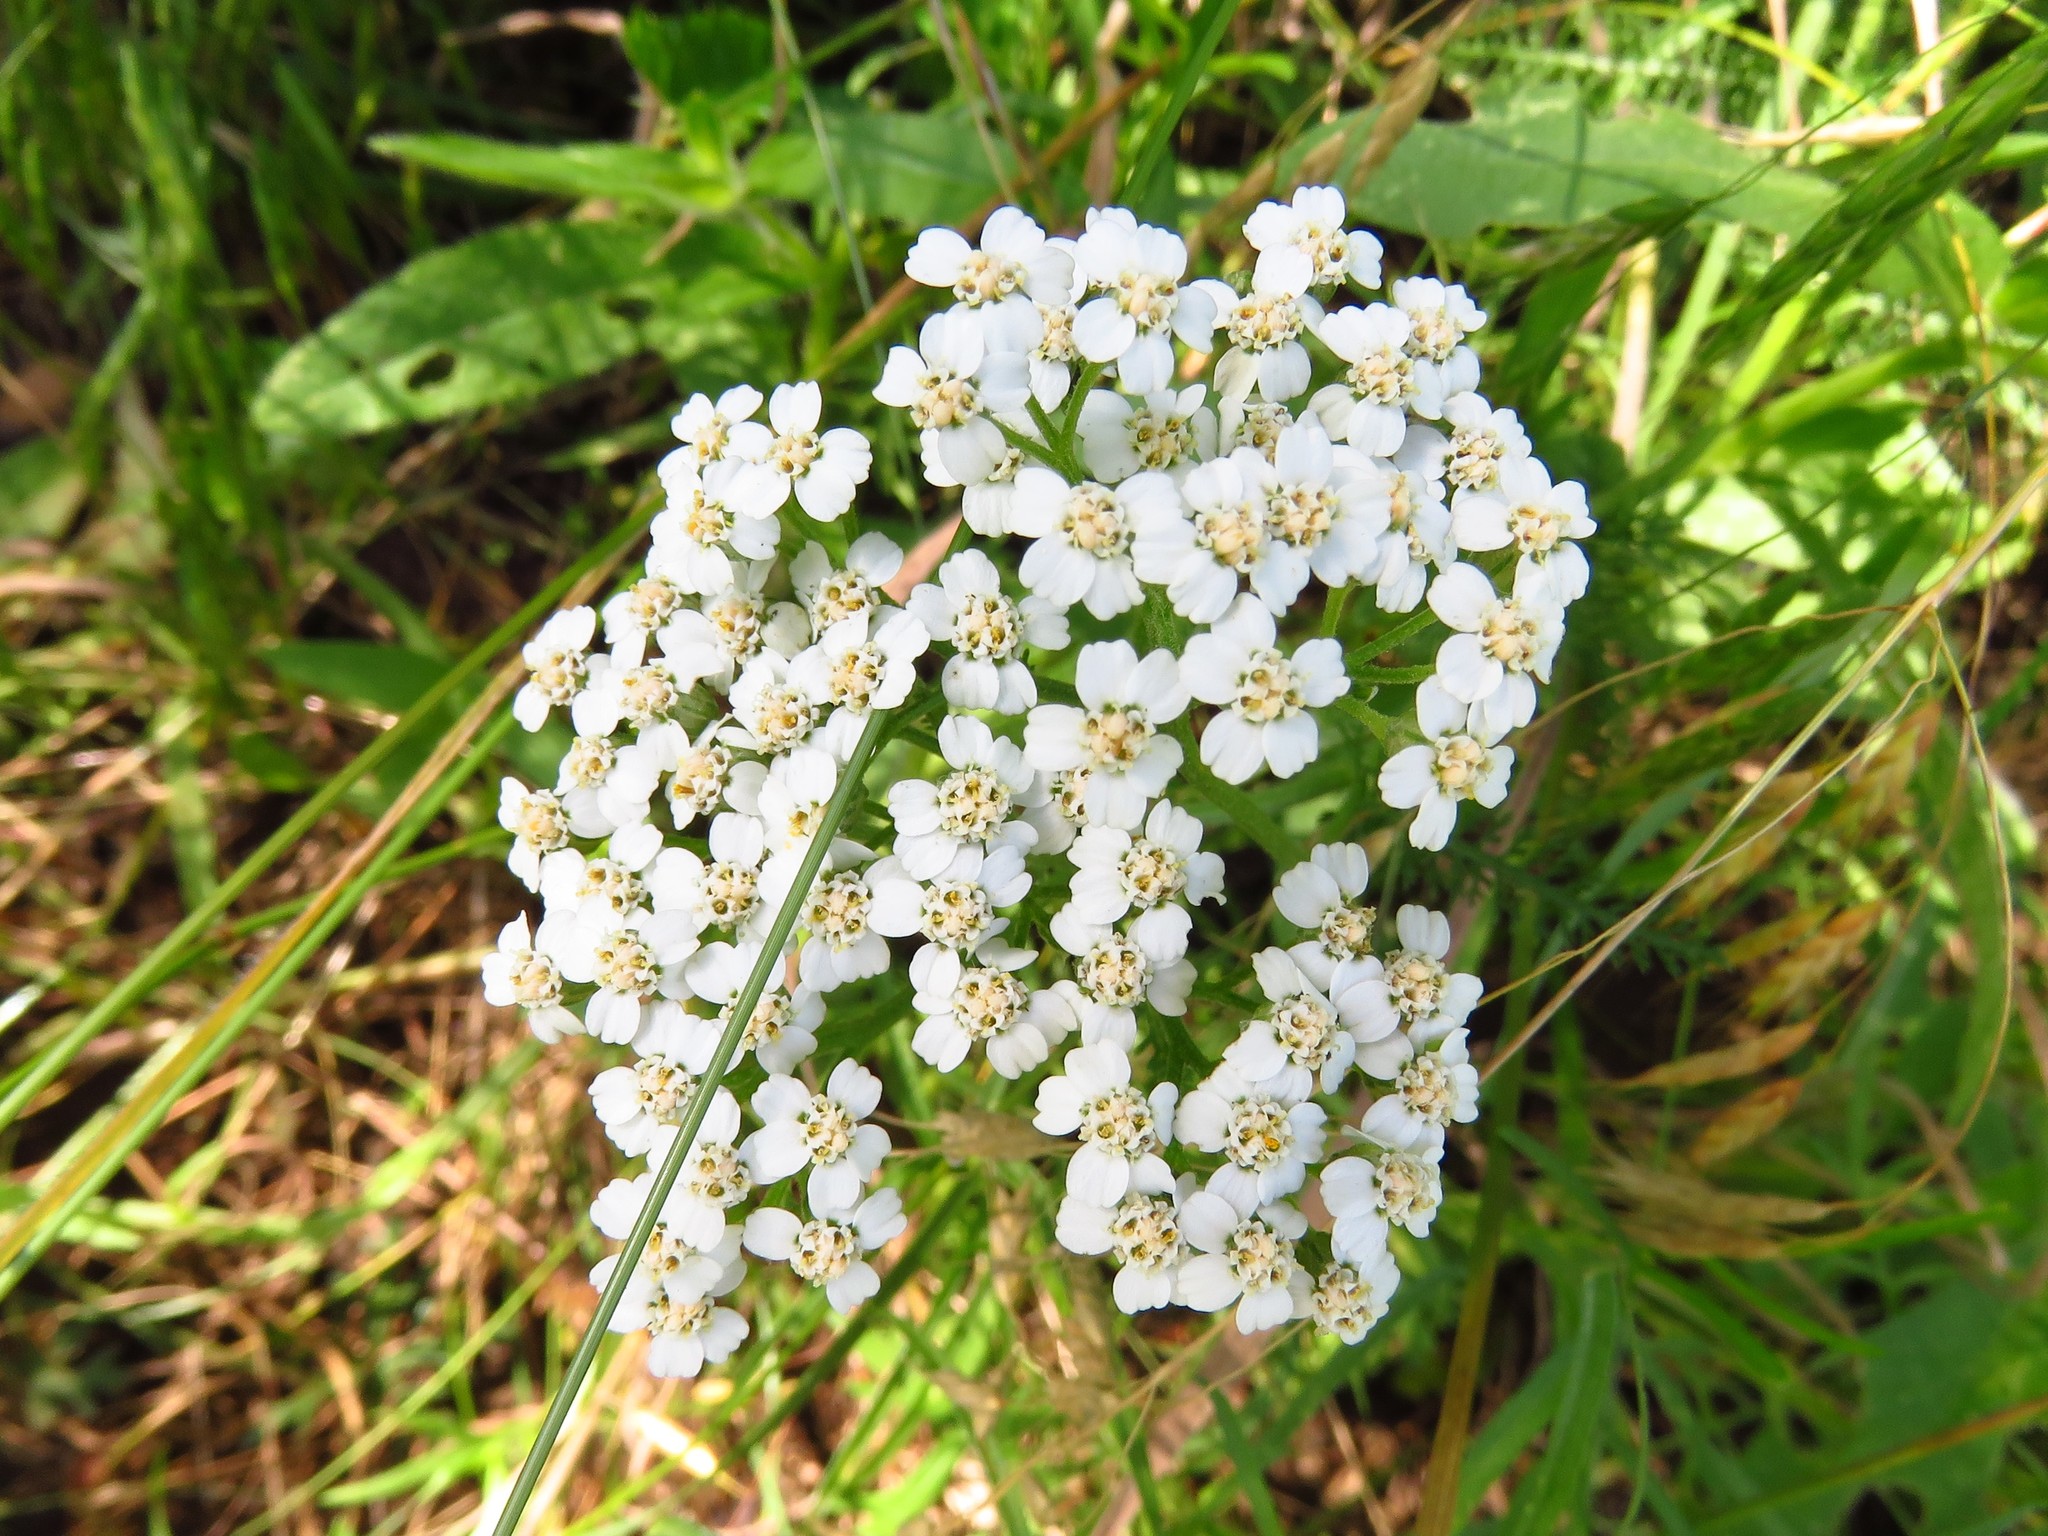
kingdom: Plantae
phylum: Tracheophyta
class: Magnoliopsida
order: Asterales
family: Asteraceae
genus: Achillea
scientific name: Achillea millefolium
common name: Yarrow
